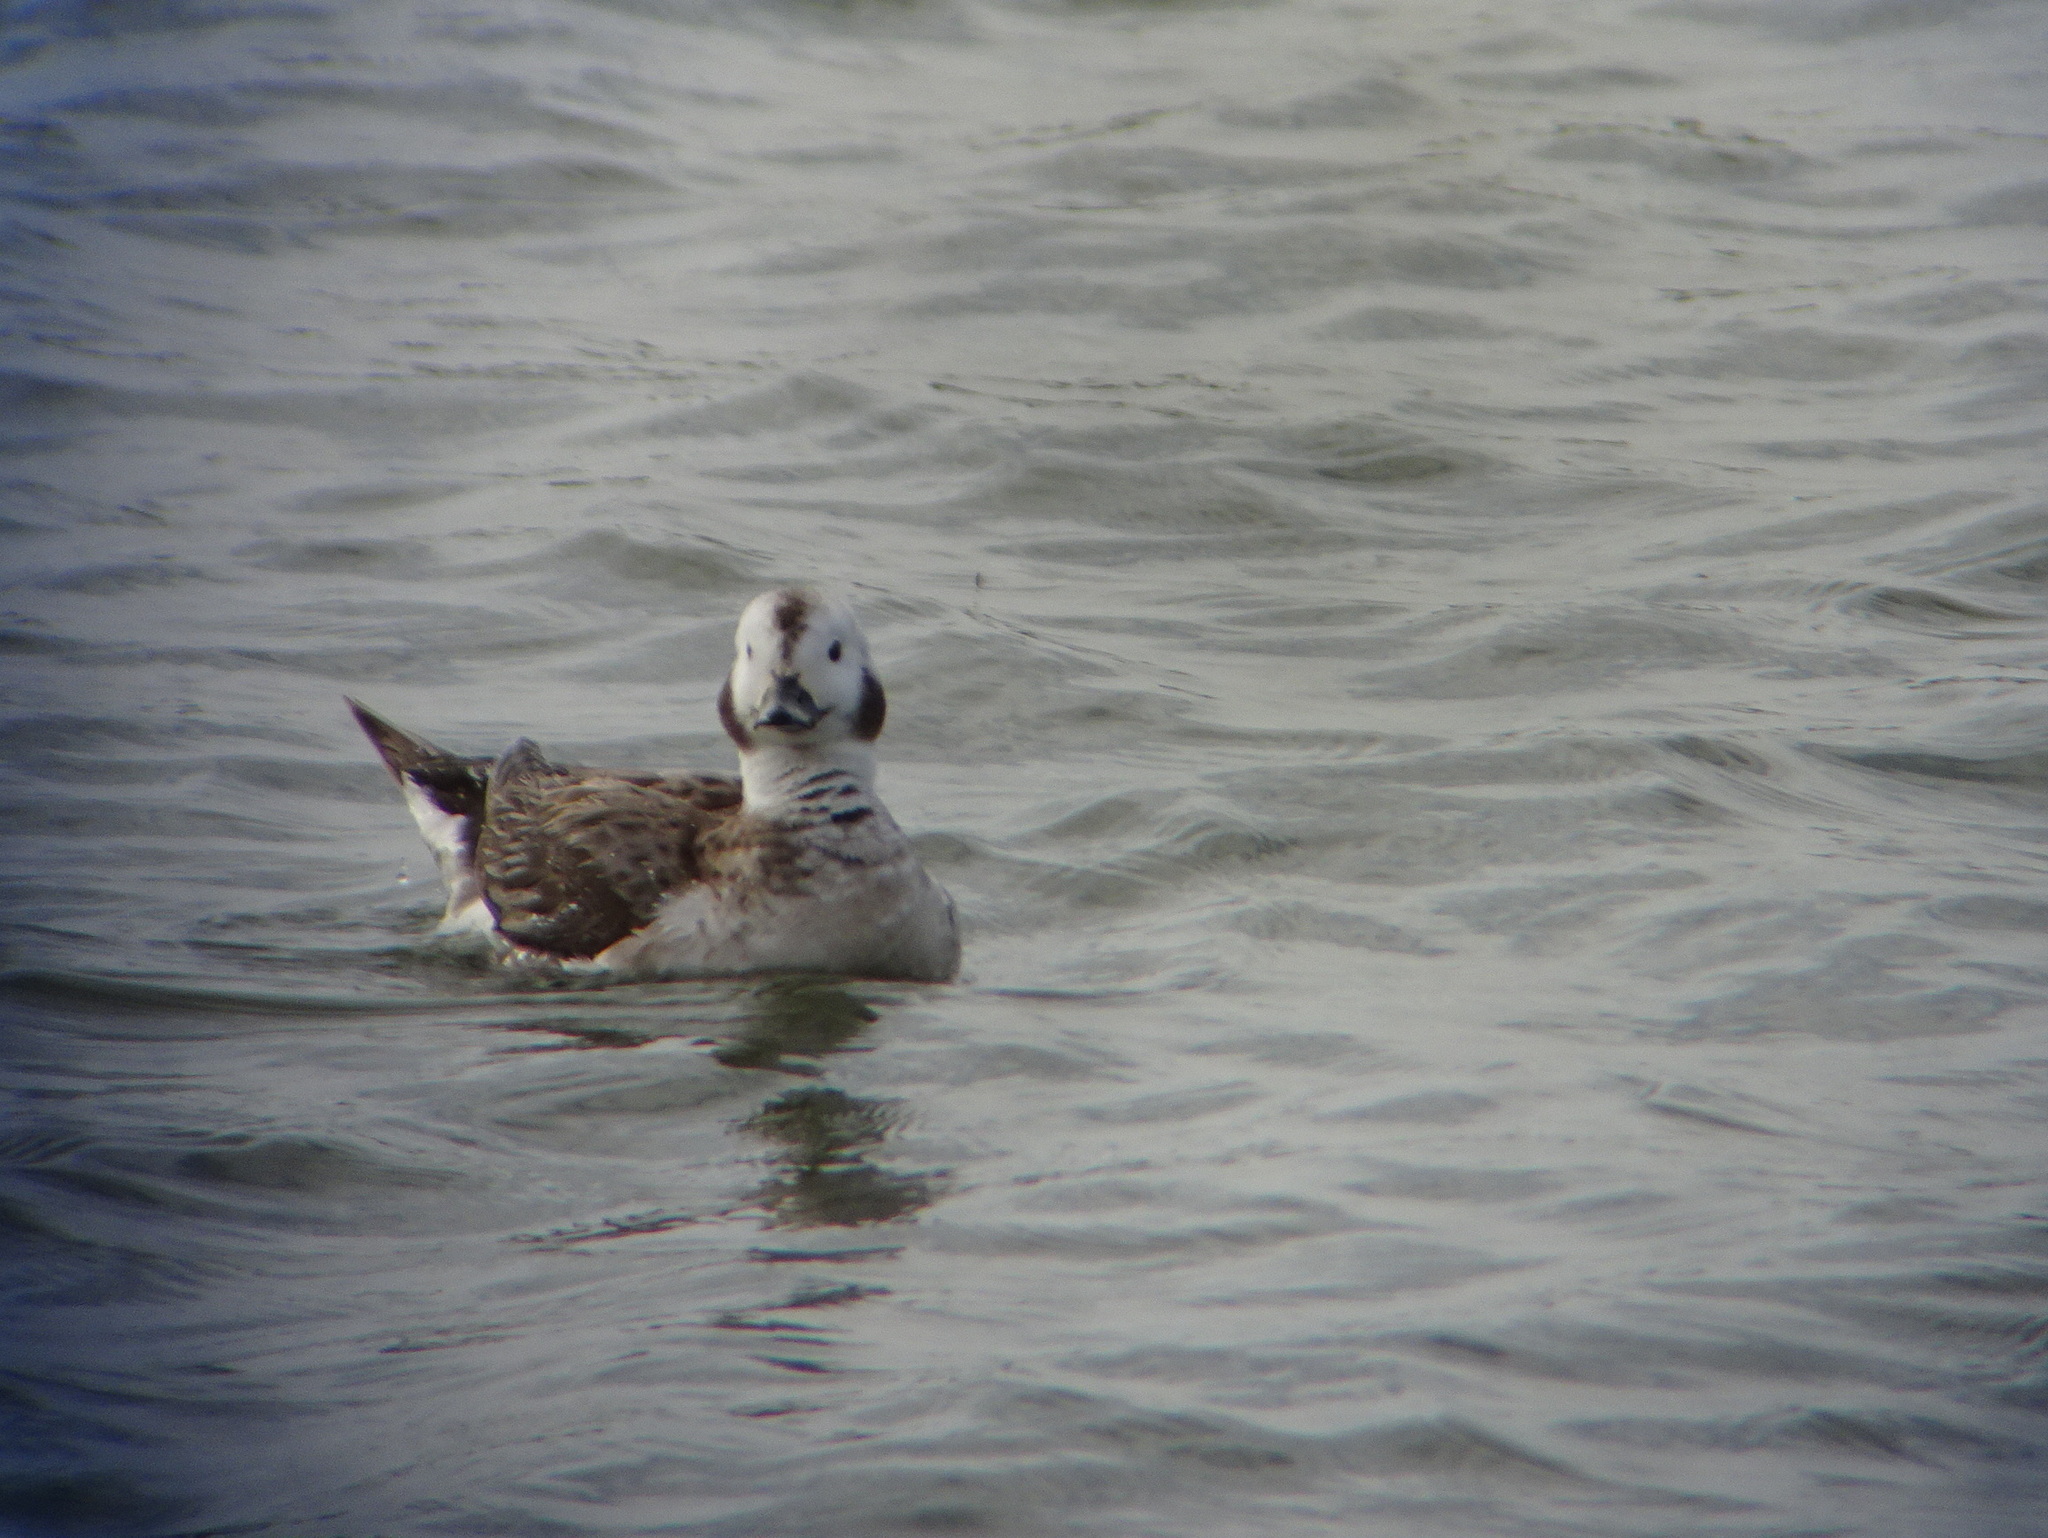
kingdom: Animalia
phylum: Chordata
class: Aves
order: Anseriformes
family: Anatidae
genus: Clangula
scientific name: Clangula hyemalis
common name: Long-tailed duck
